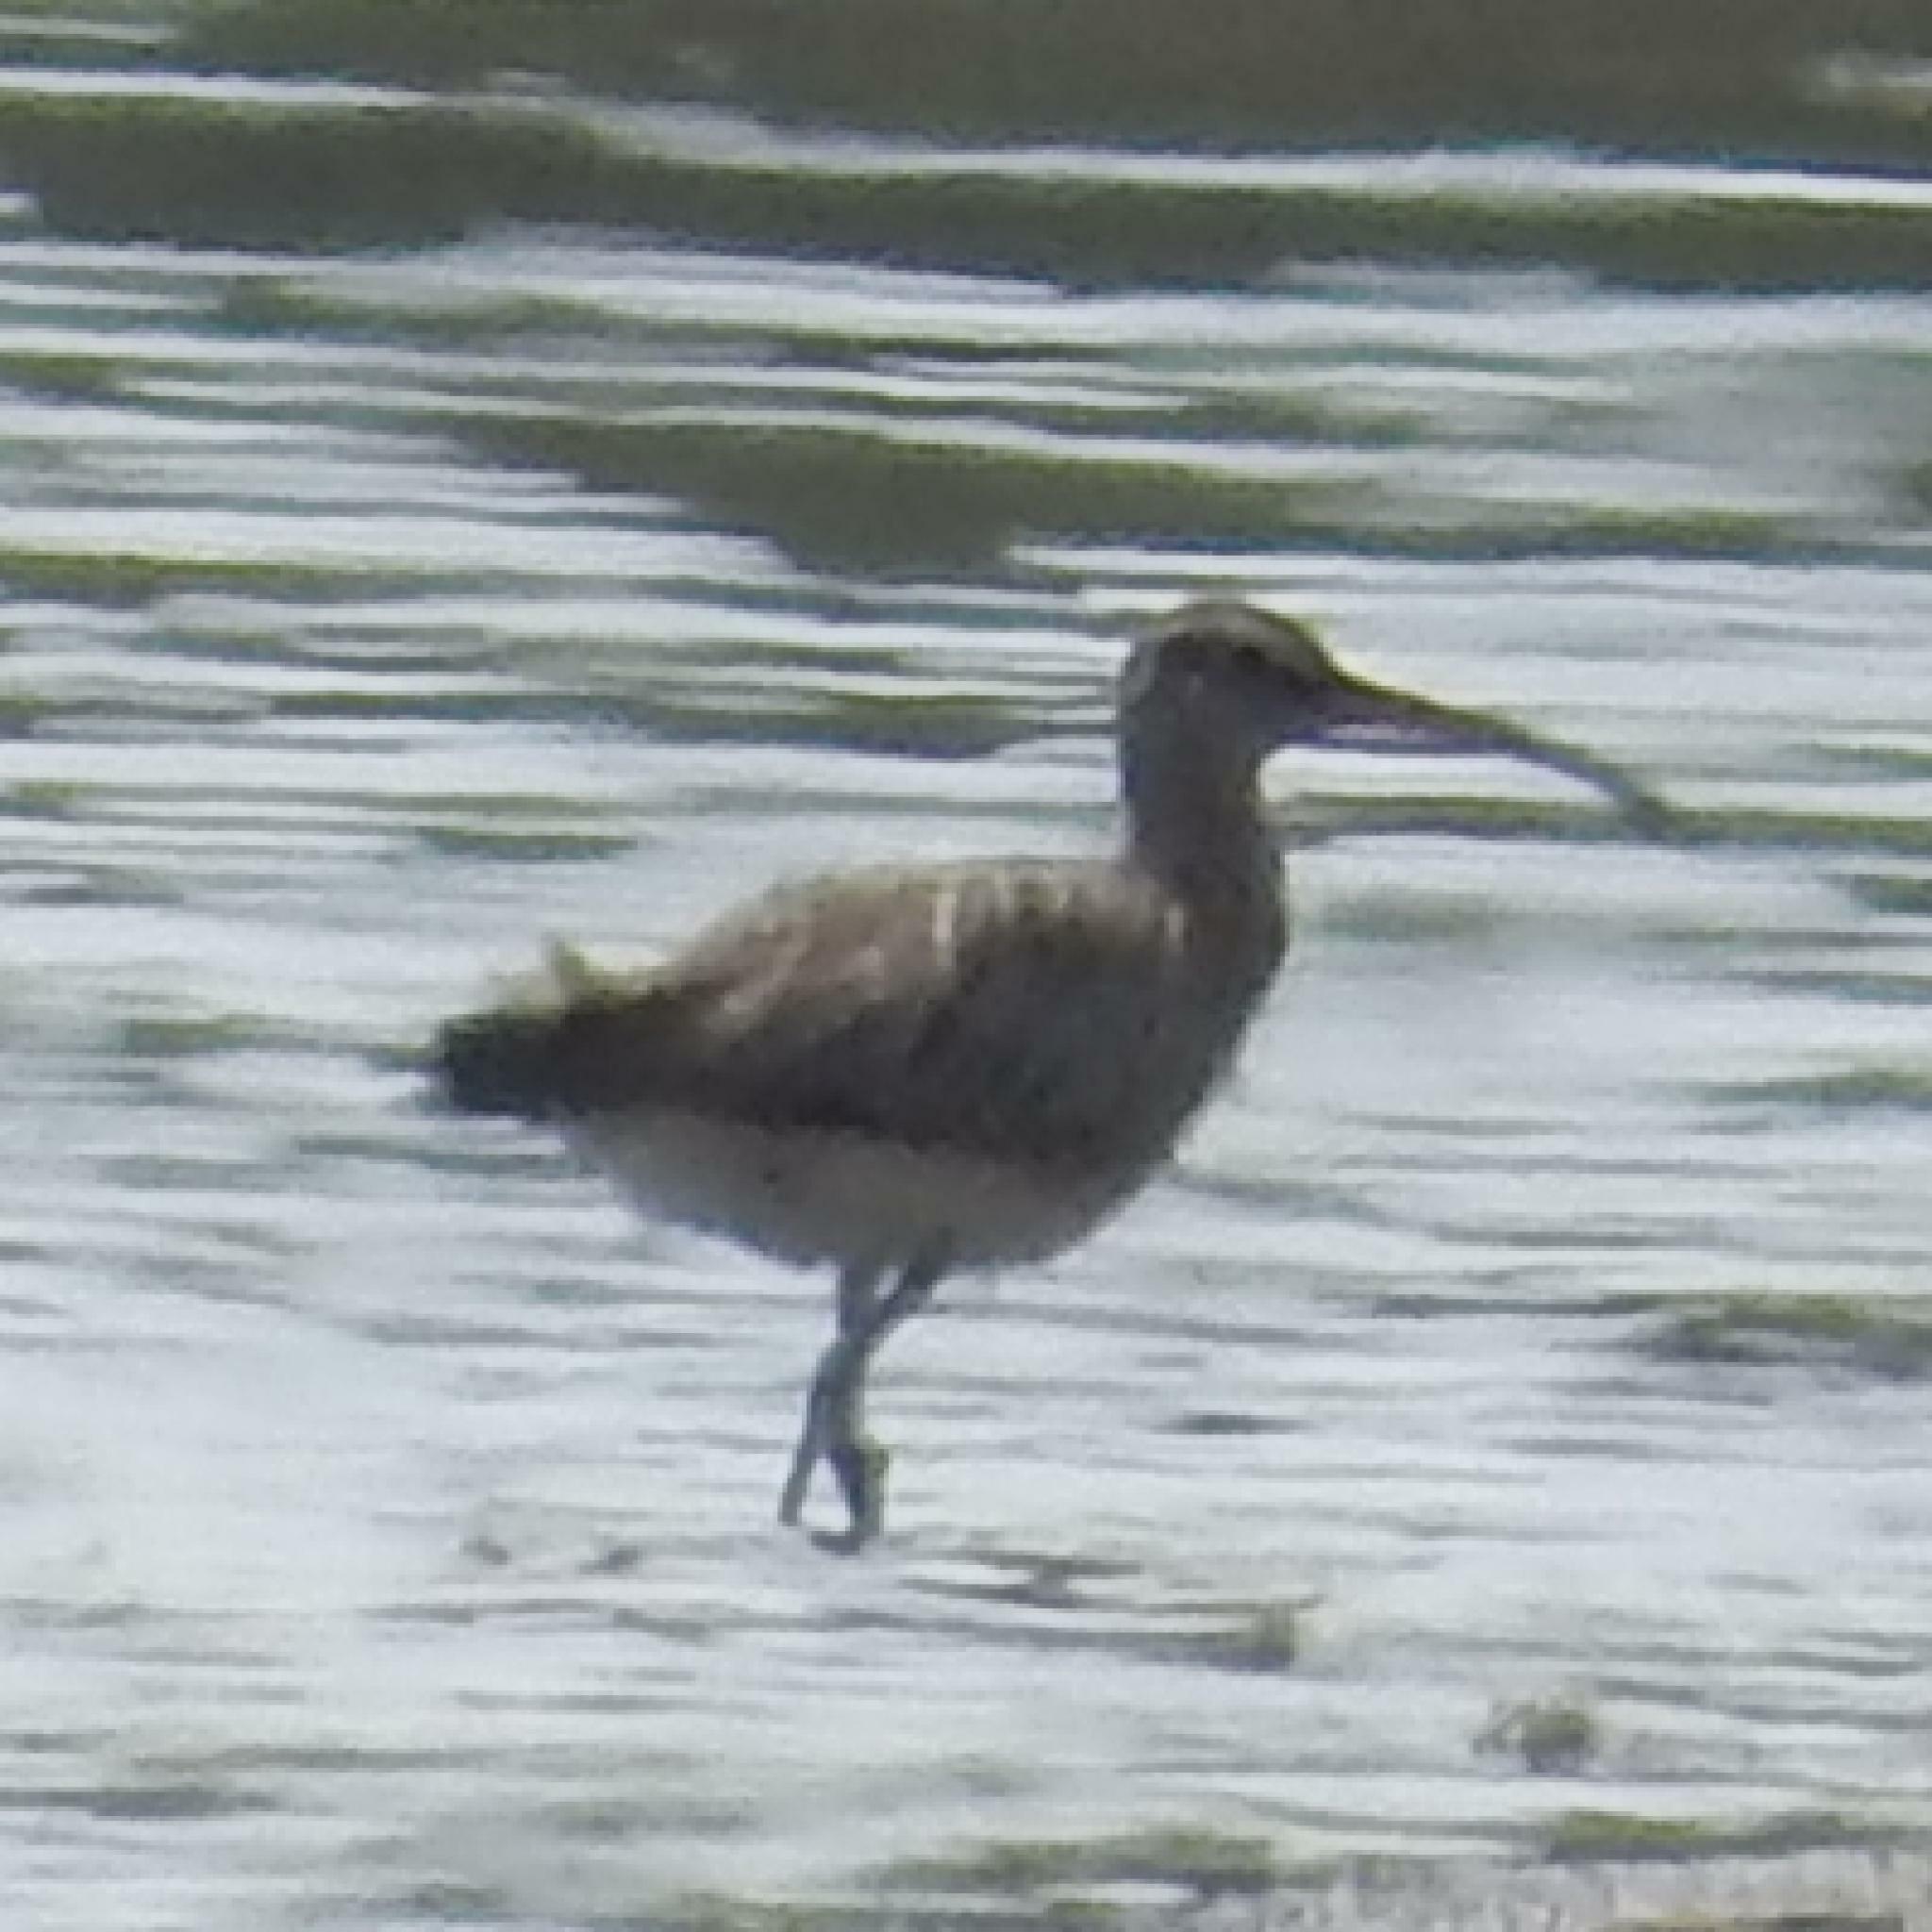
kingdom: Animalia
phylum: Chordata
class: Aves
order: Charadriiformes
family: Scolopacidae
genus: Numenius
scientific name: Numenius phaeopus
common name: Whimbrel
